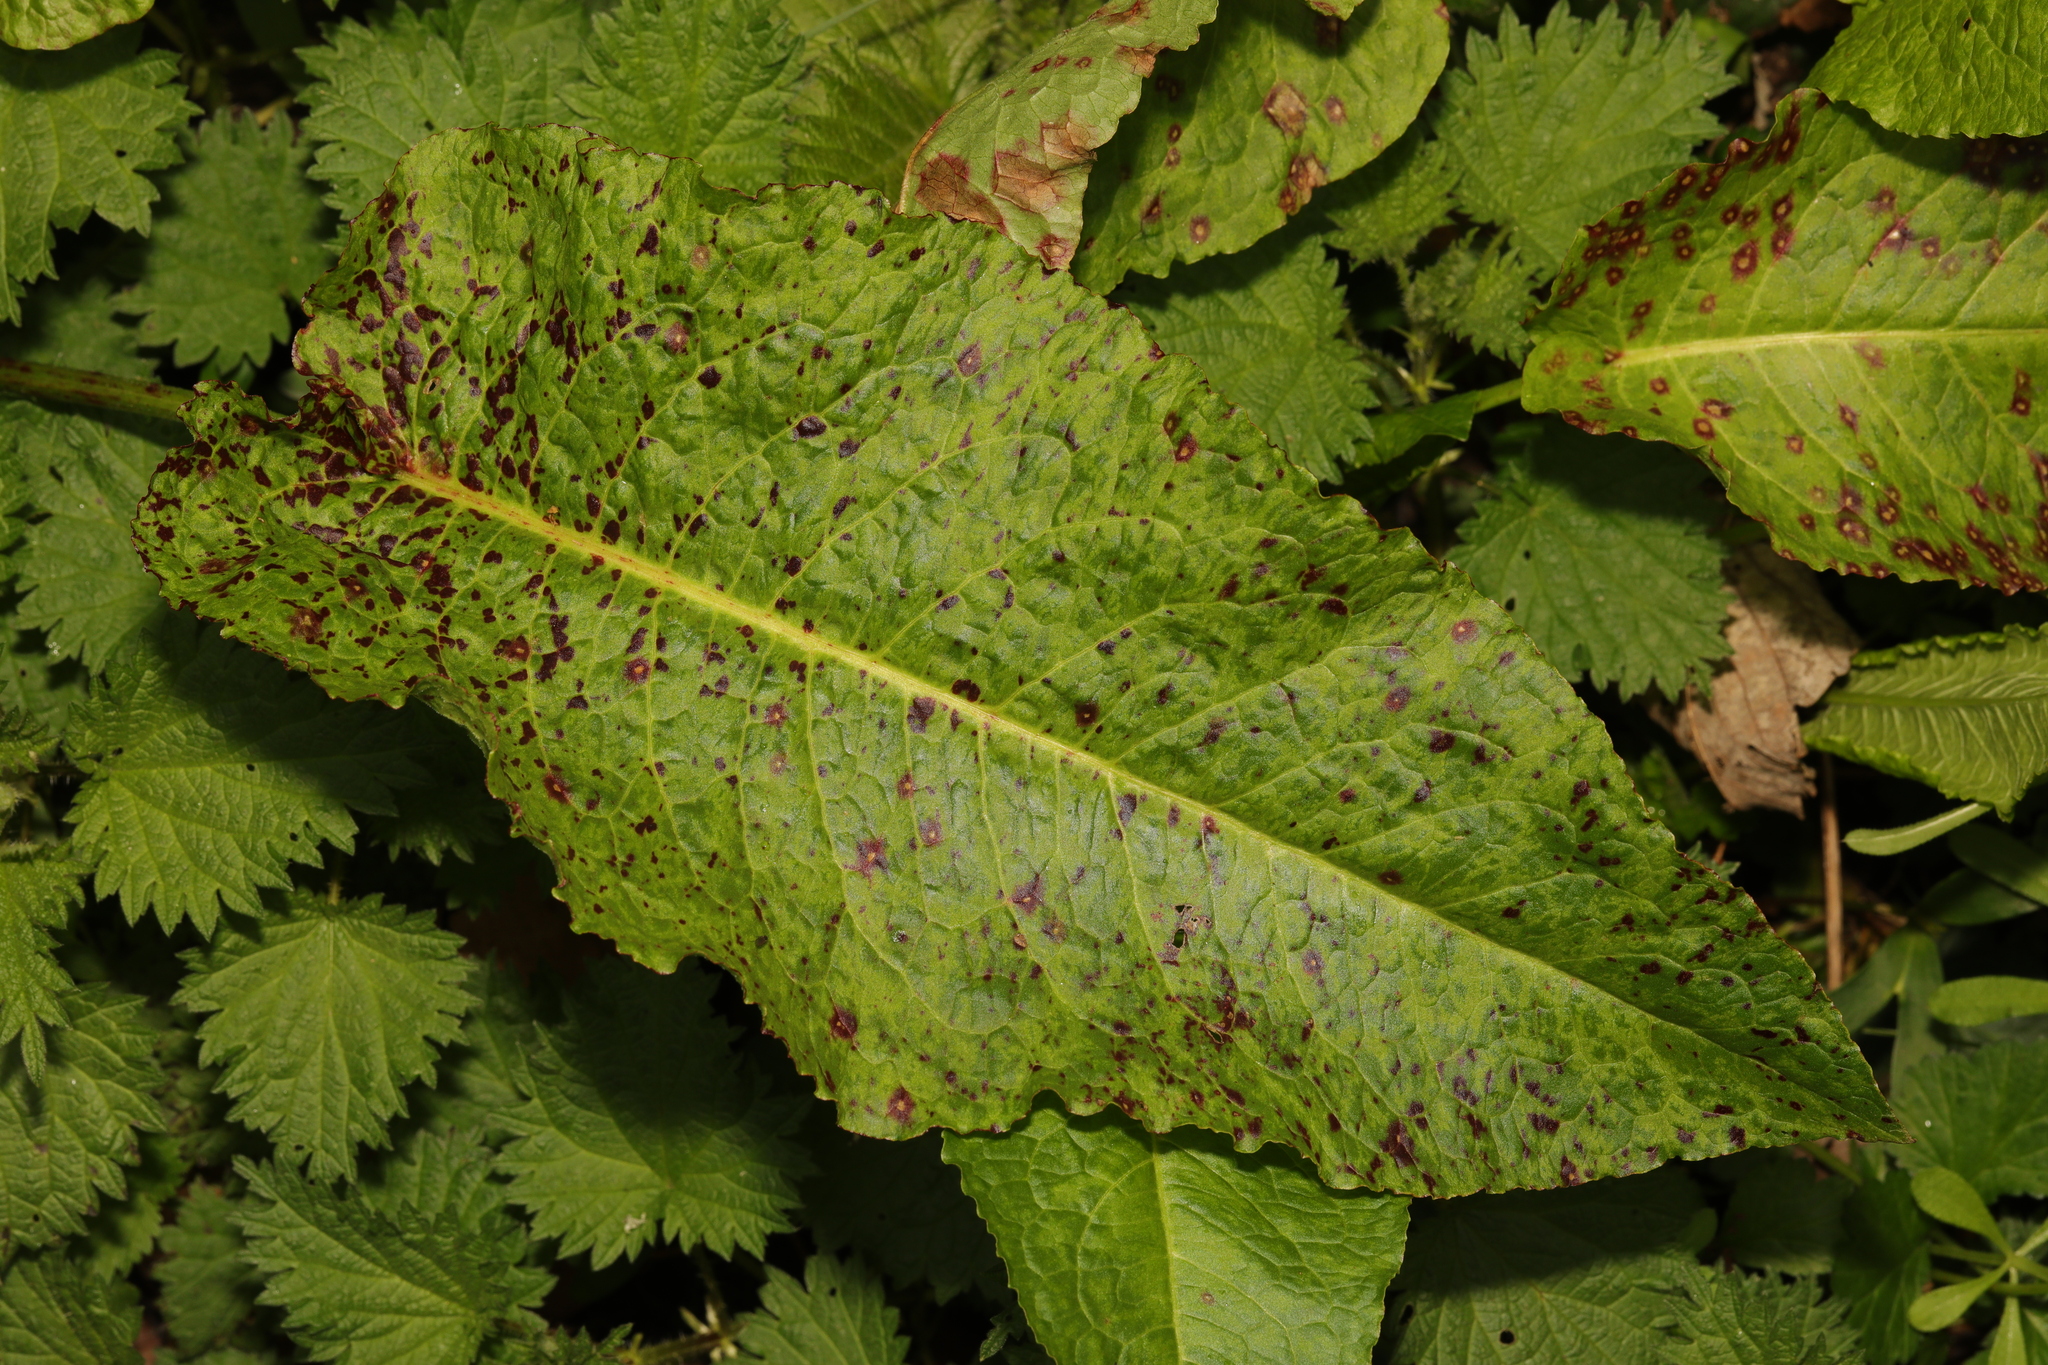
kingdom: Plantae
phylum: Tracheophyta
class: Magnoliopsida
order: Caryophyllales
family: Polygonaceae
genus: Rumex
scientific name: Rumex obtusifolius
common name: Bitter dock
